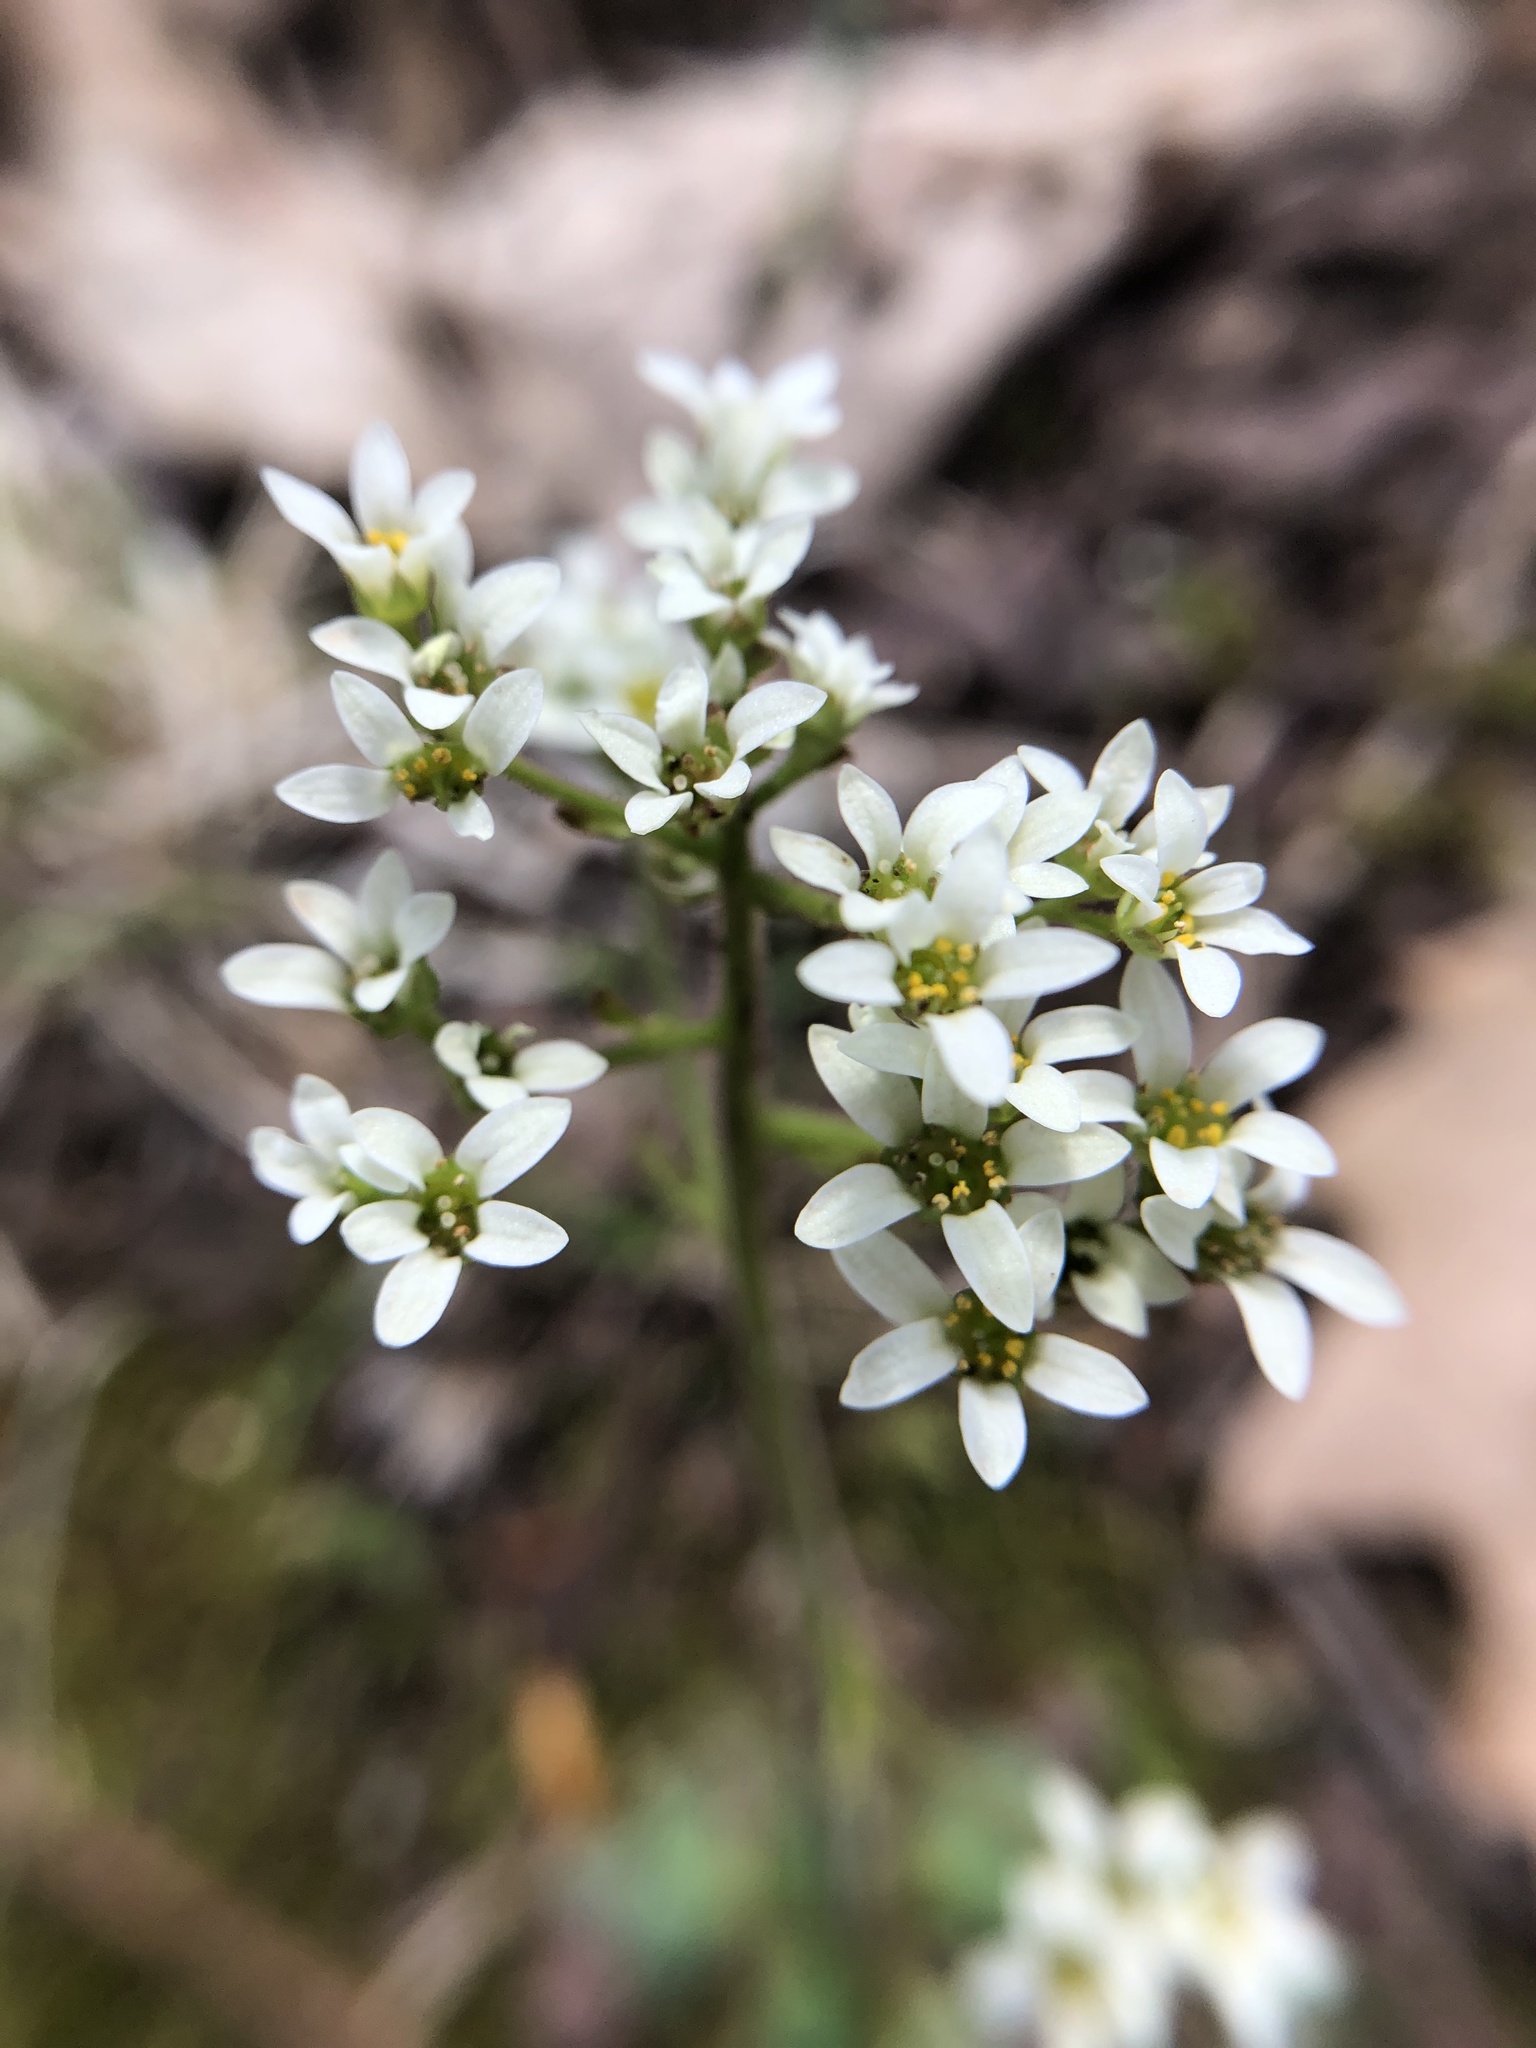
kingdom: Plantae
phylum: Tracheophyta
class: Magnoliopsida
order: Saxifragales
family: Saxifragaceae
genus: Micranthes
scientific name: Micranthes virginiensis
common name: Early saxifrage
